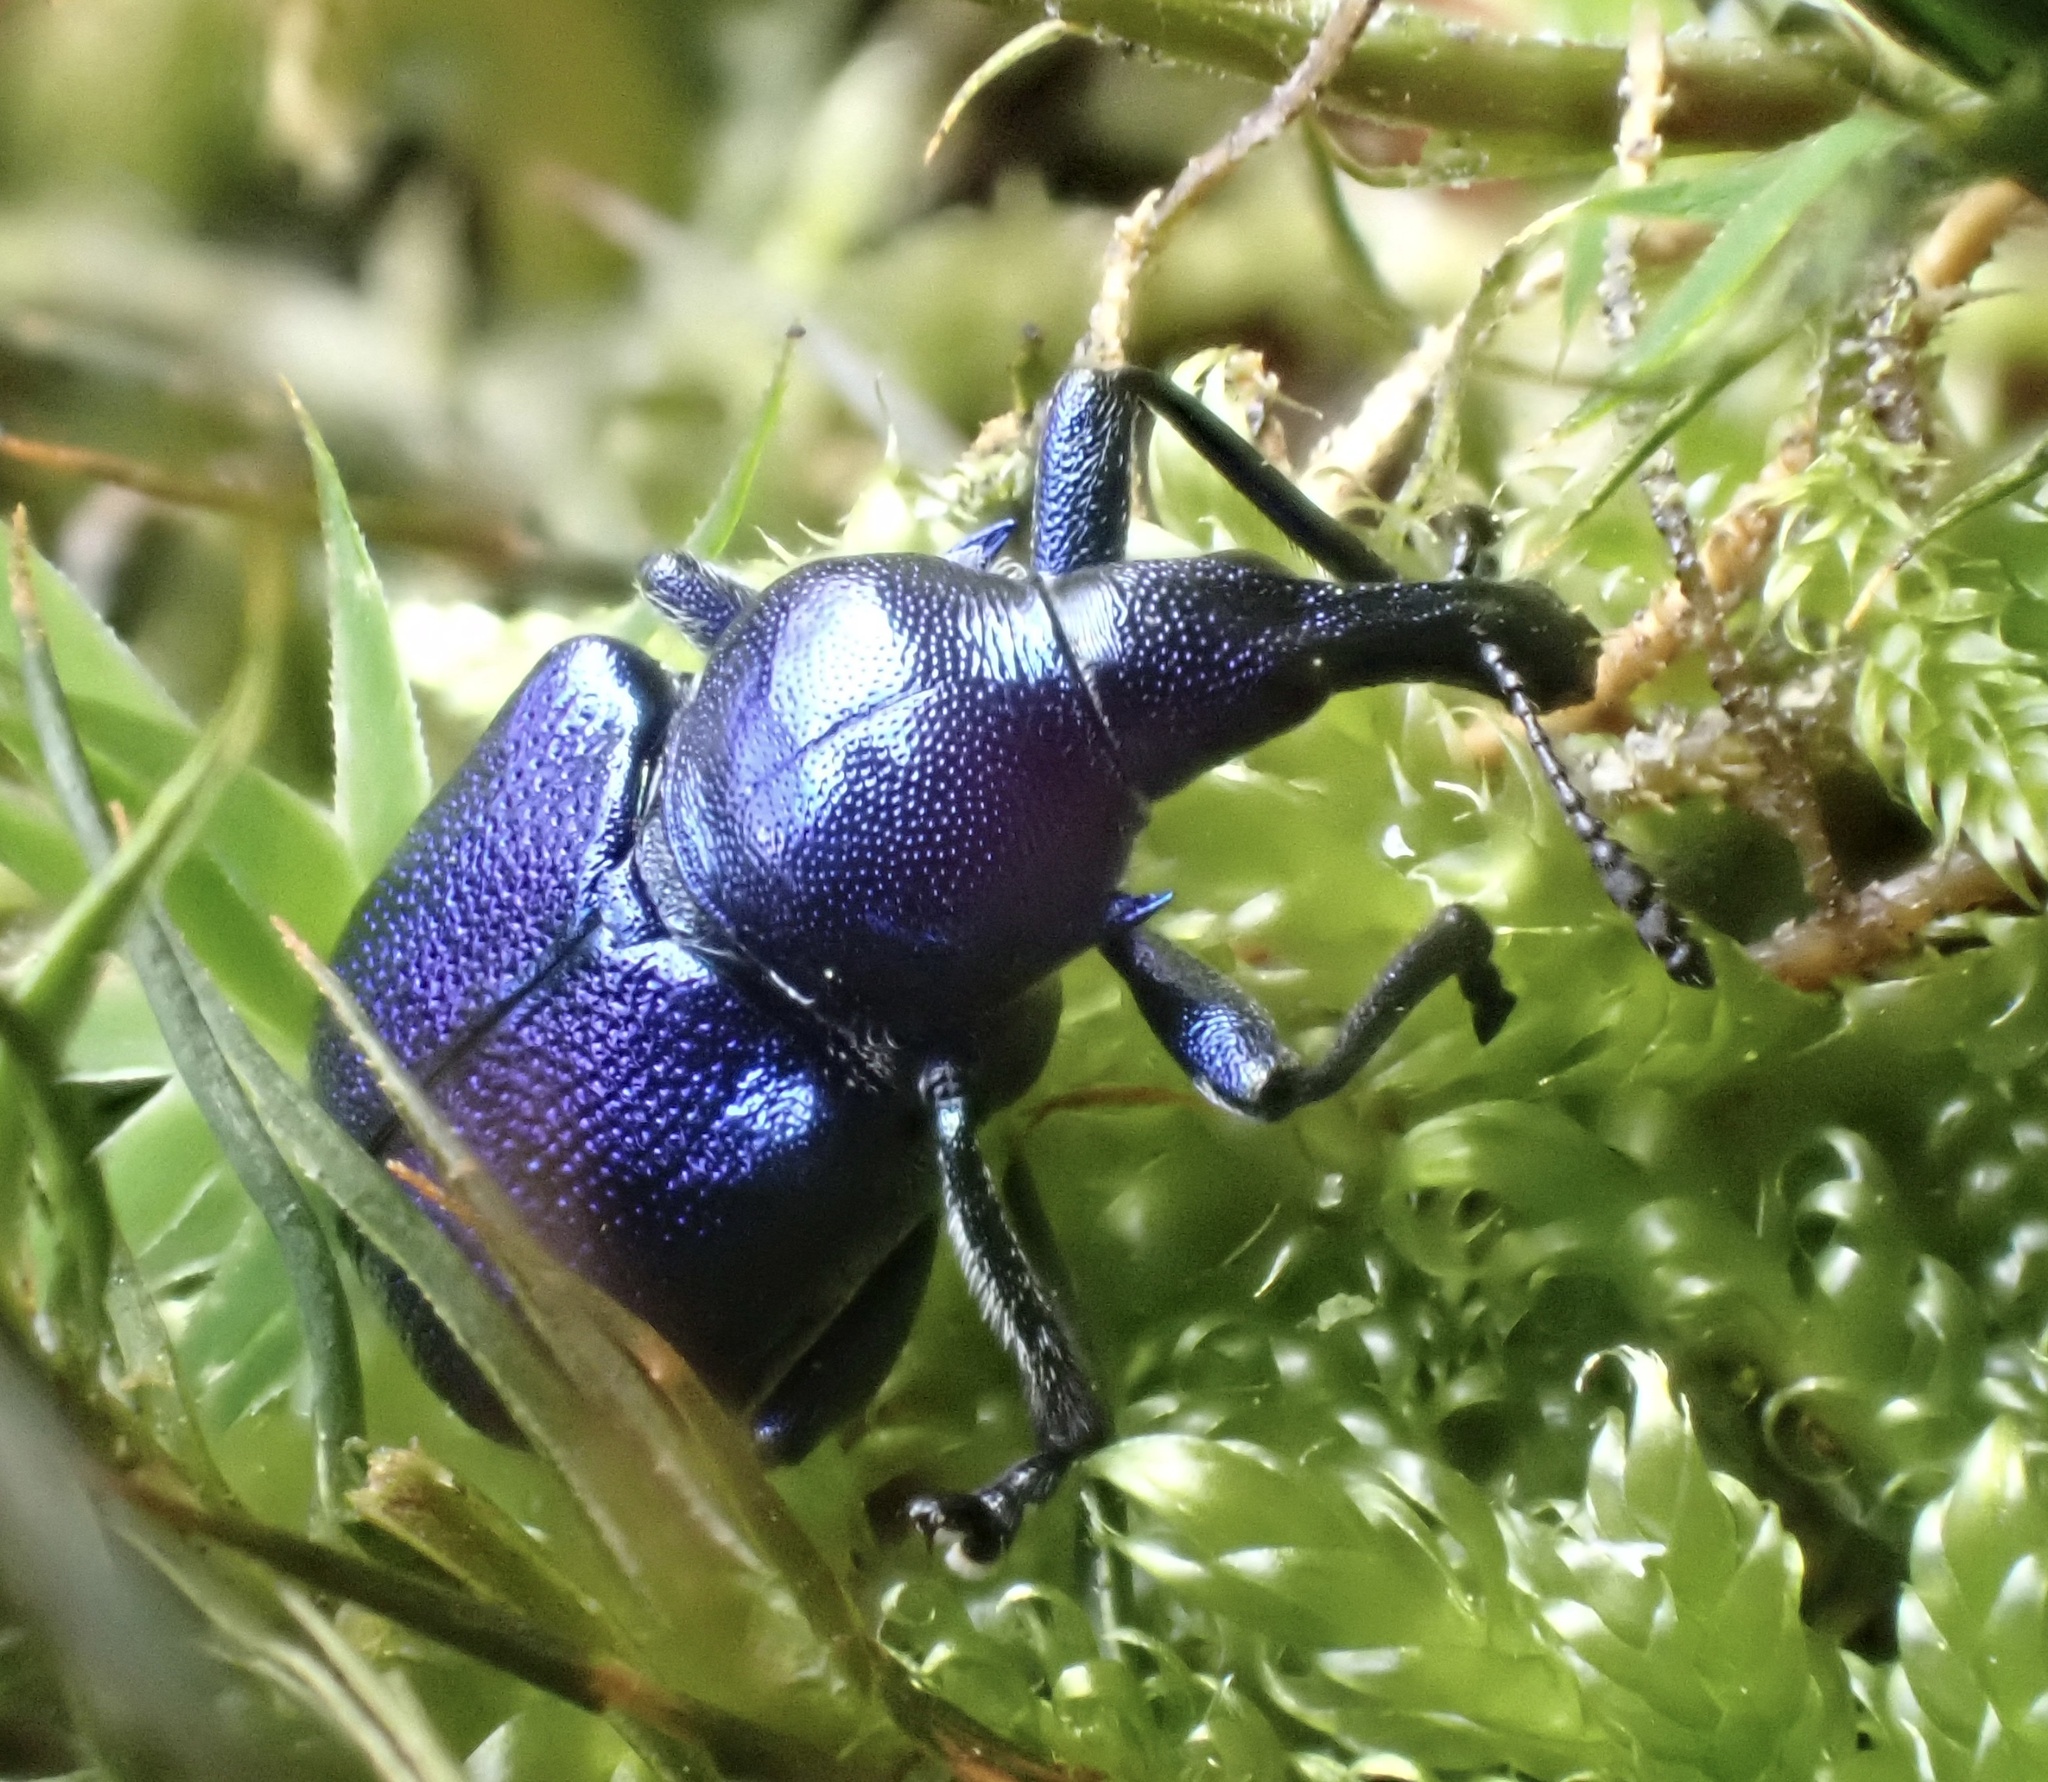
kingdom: Animalia
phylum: Arthropoda
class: Insecta
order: Coleoptera
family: Attelabidae
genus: Byctiscus
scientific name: Byctiscus betulae
